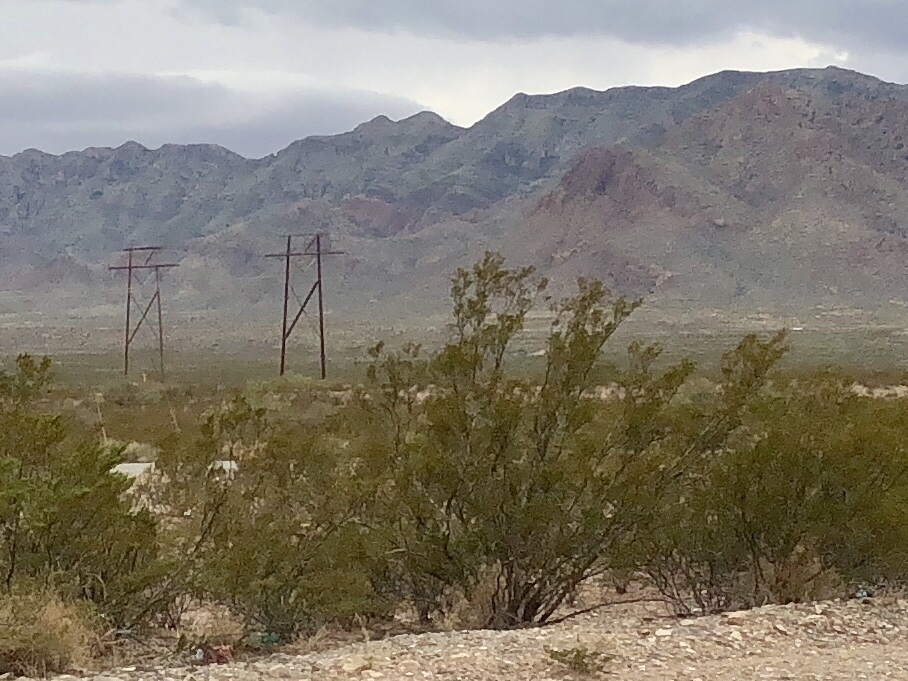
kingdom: Plantae
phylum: Tracheophyta
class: Magnoliopsida
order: Zygophyllales
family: Zygophyllaceae
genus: Larrea
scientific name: Larrea tridentata
